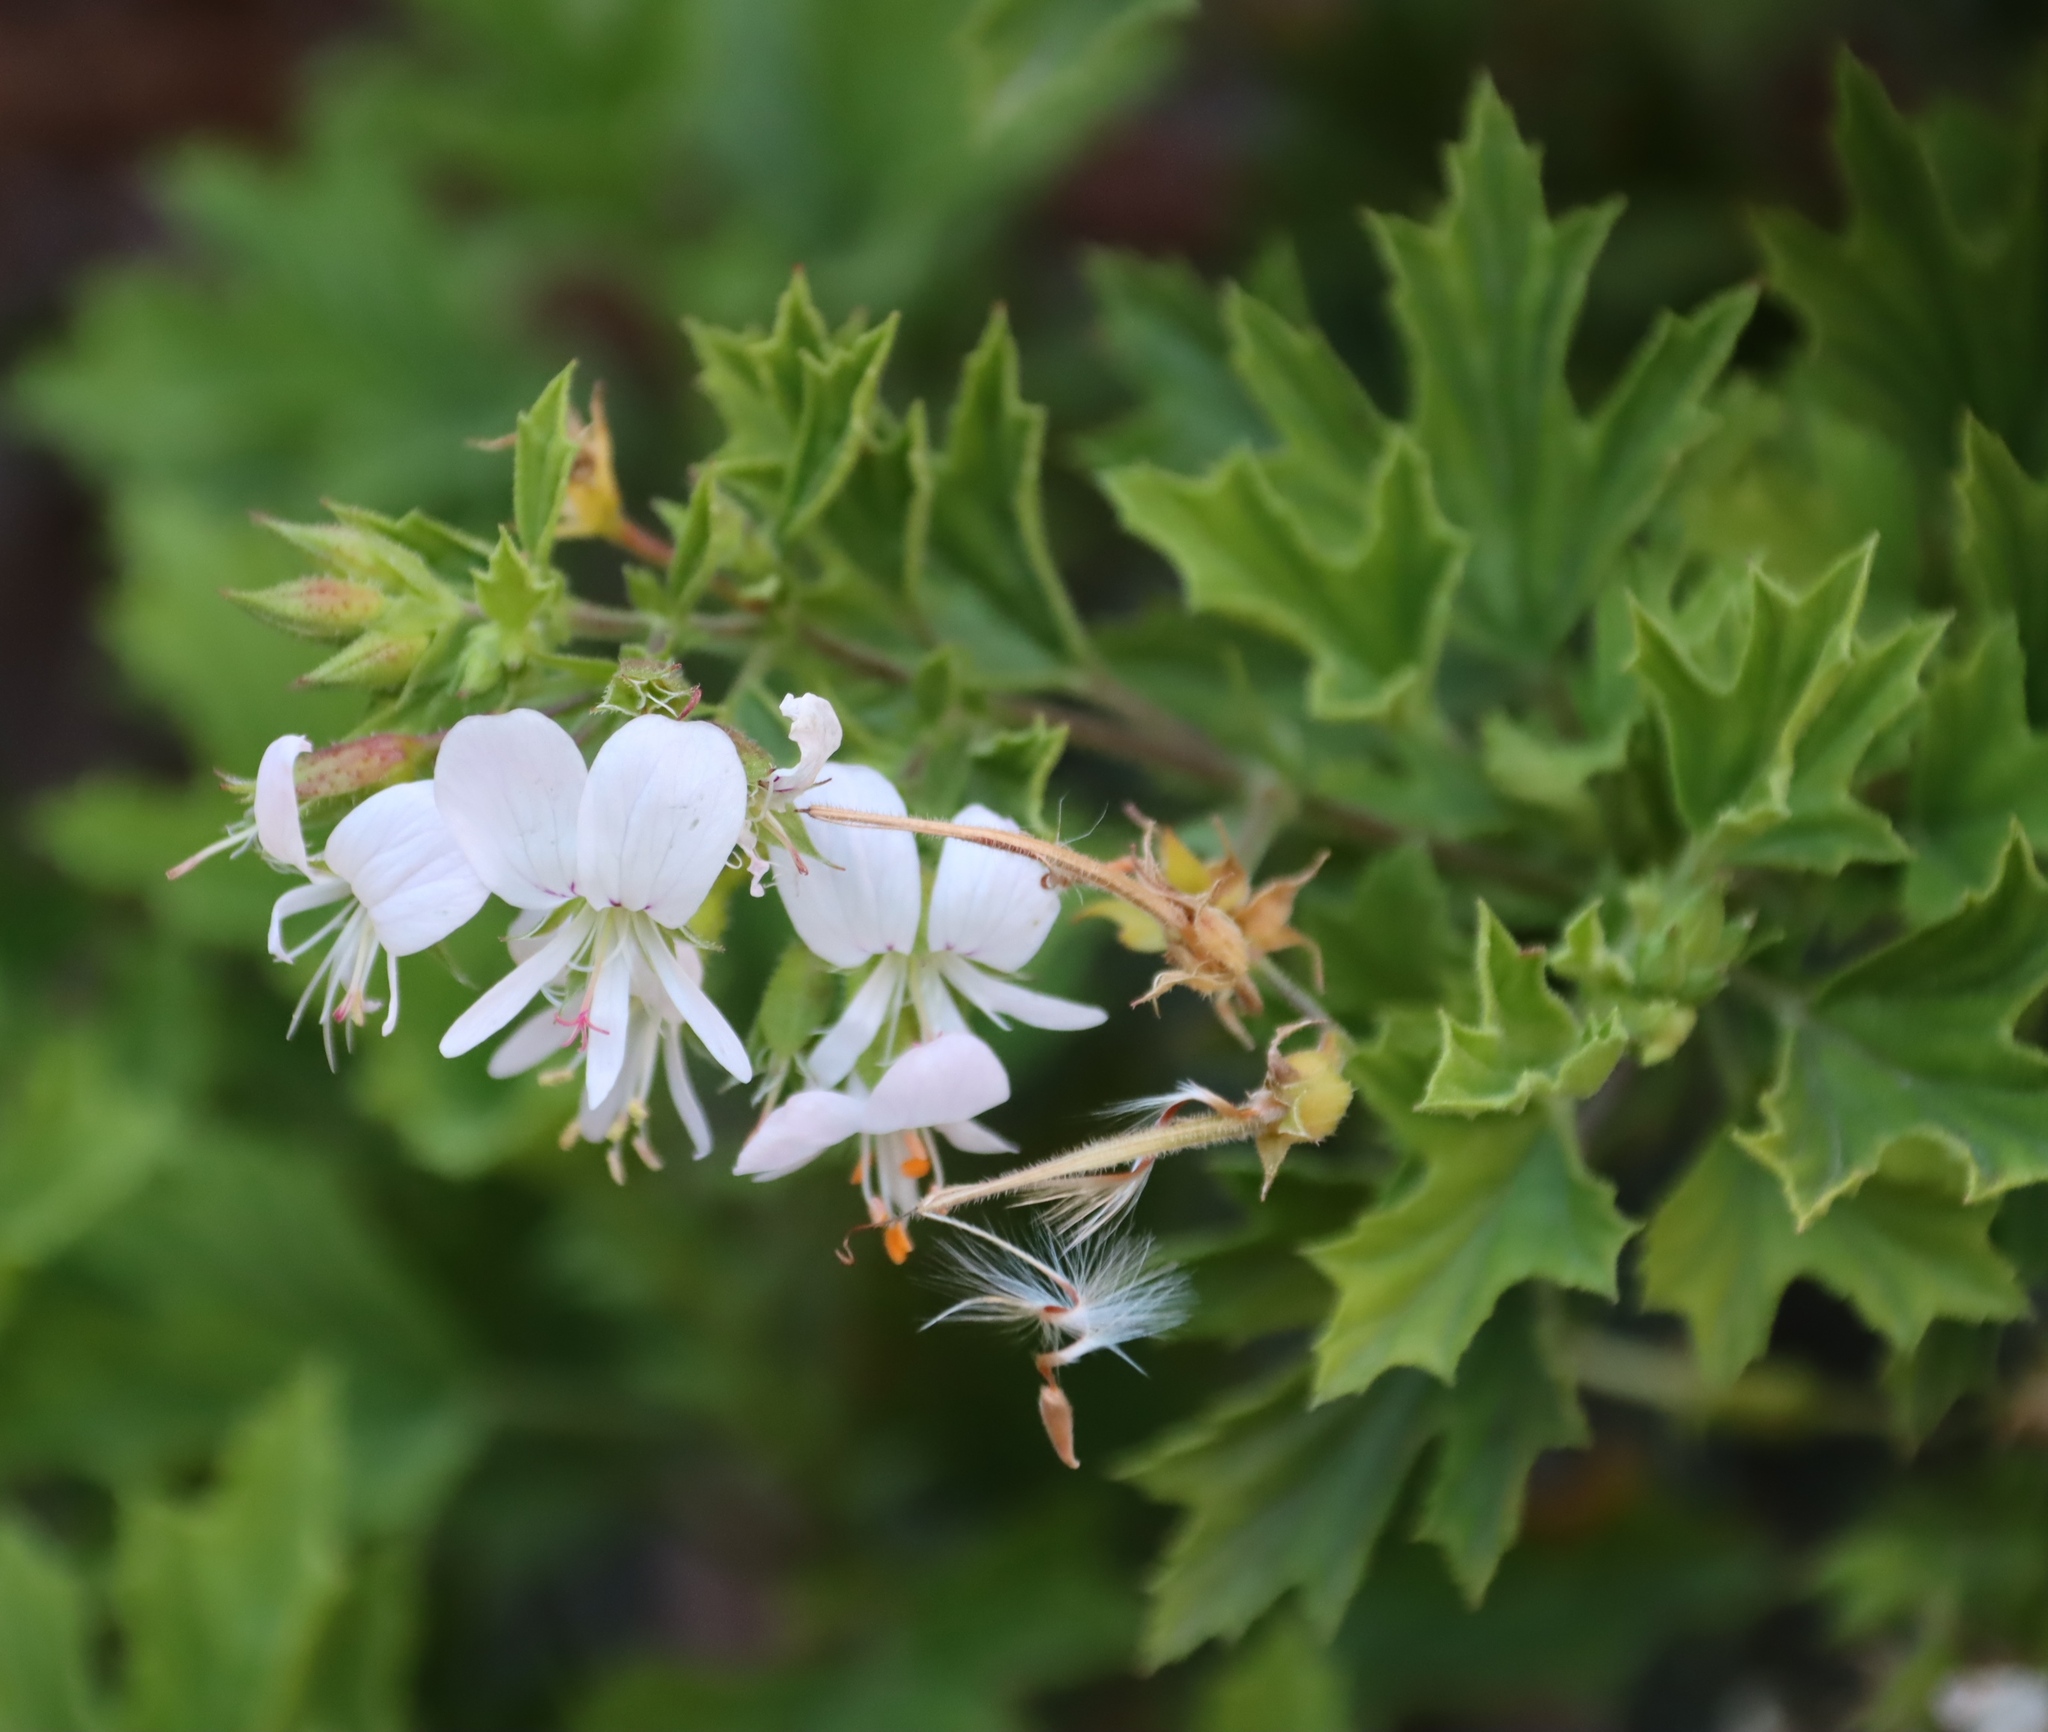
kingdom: Plantae
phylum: Tracheophyta
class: Magnoliopsida
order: Geraniales
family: Geraniaceae
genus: Pelargonium
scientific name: Pelargonium ribifolium
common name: Currant-leaf pelargonium
